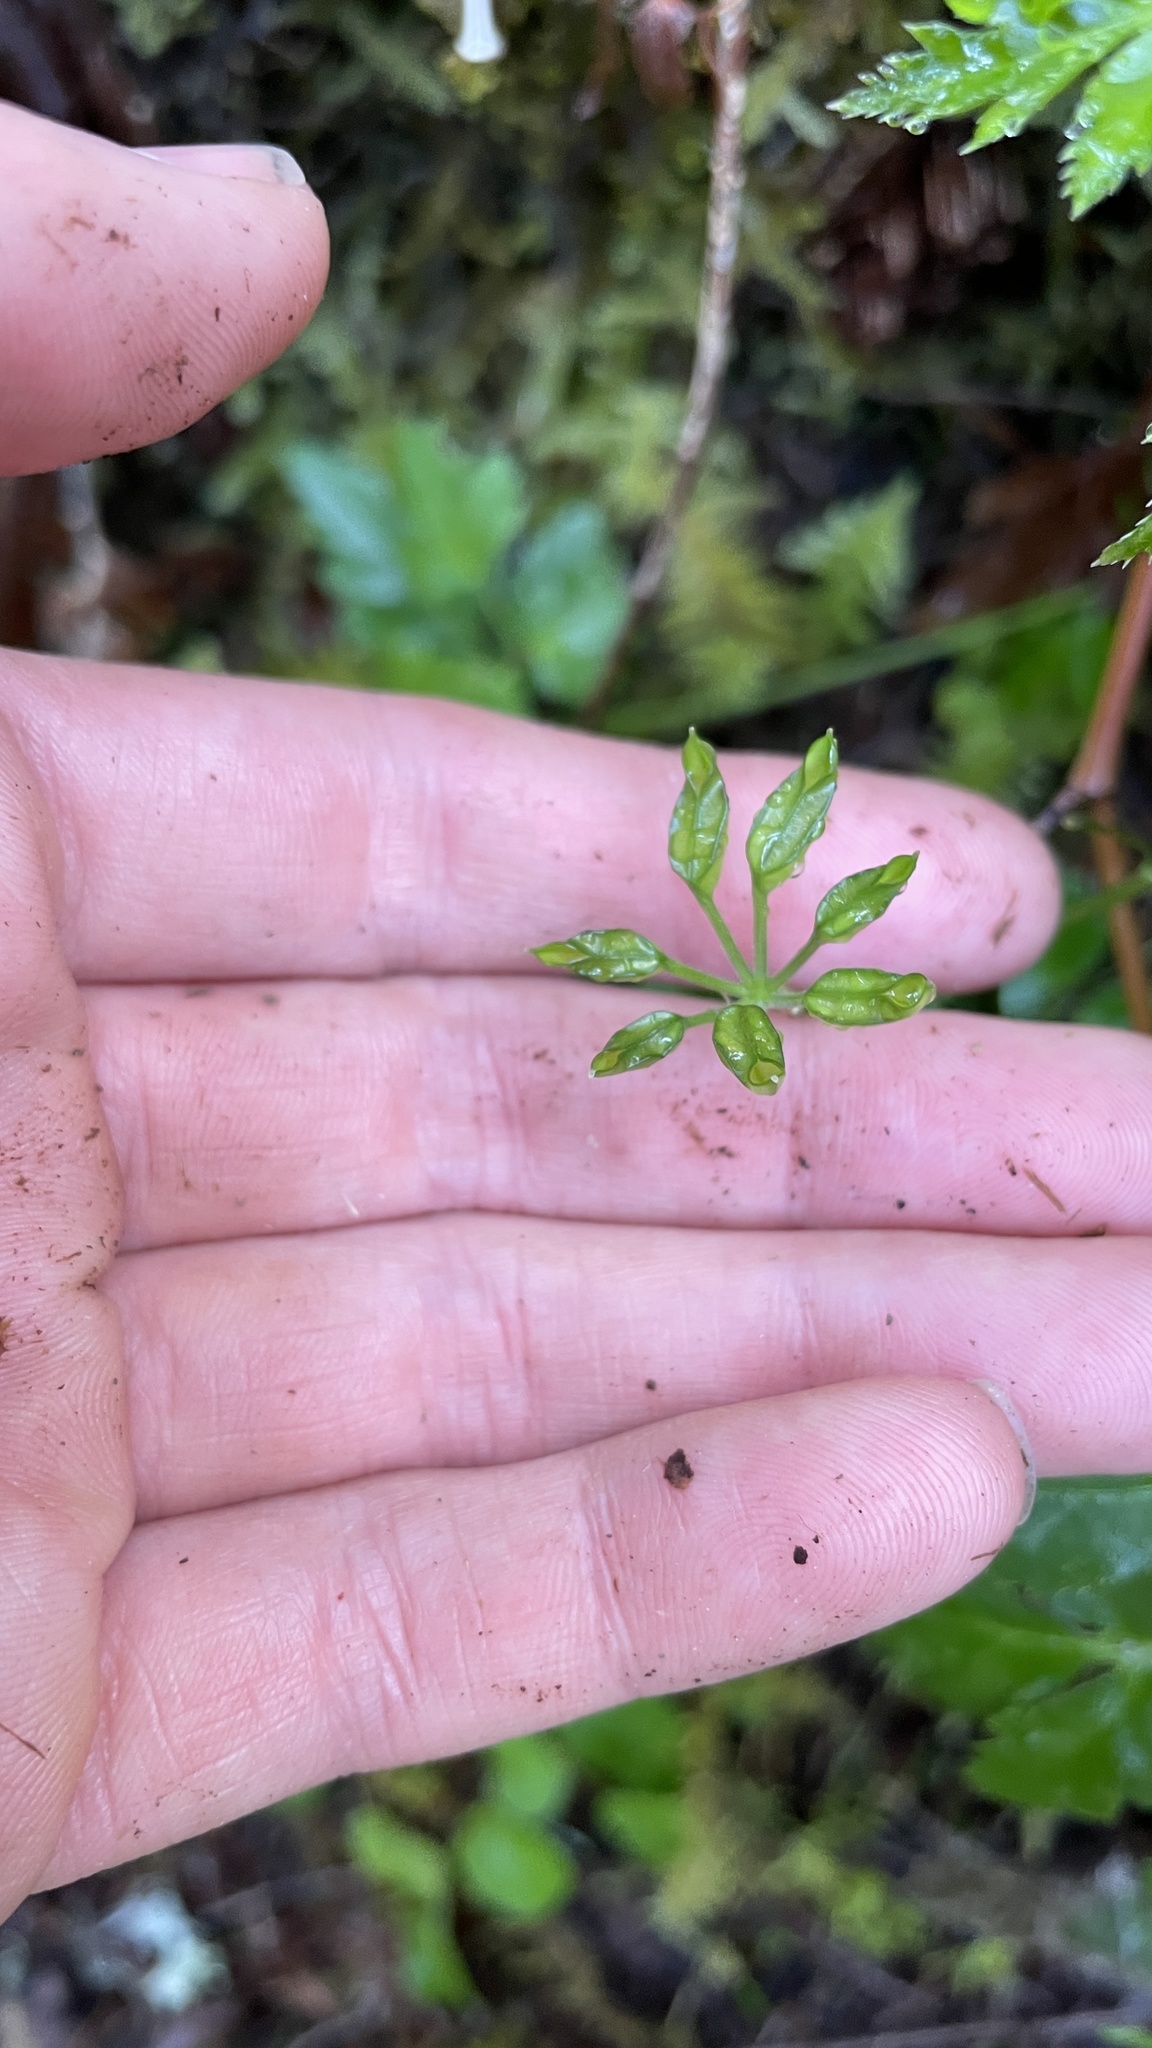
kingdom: Plantae
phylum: Tracheophyta
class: Magnoliopsida
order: Ranunculales
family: Ranunculaceae
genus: Coptis
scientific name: Coptis laciniata
